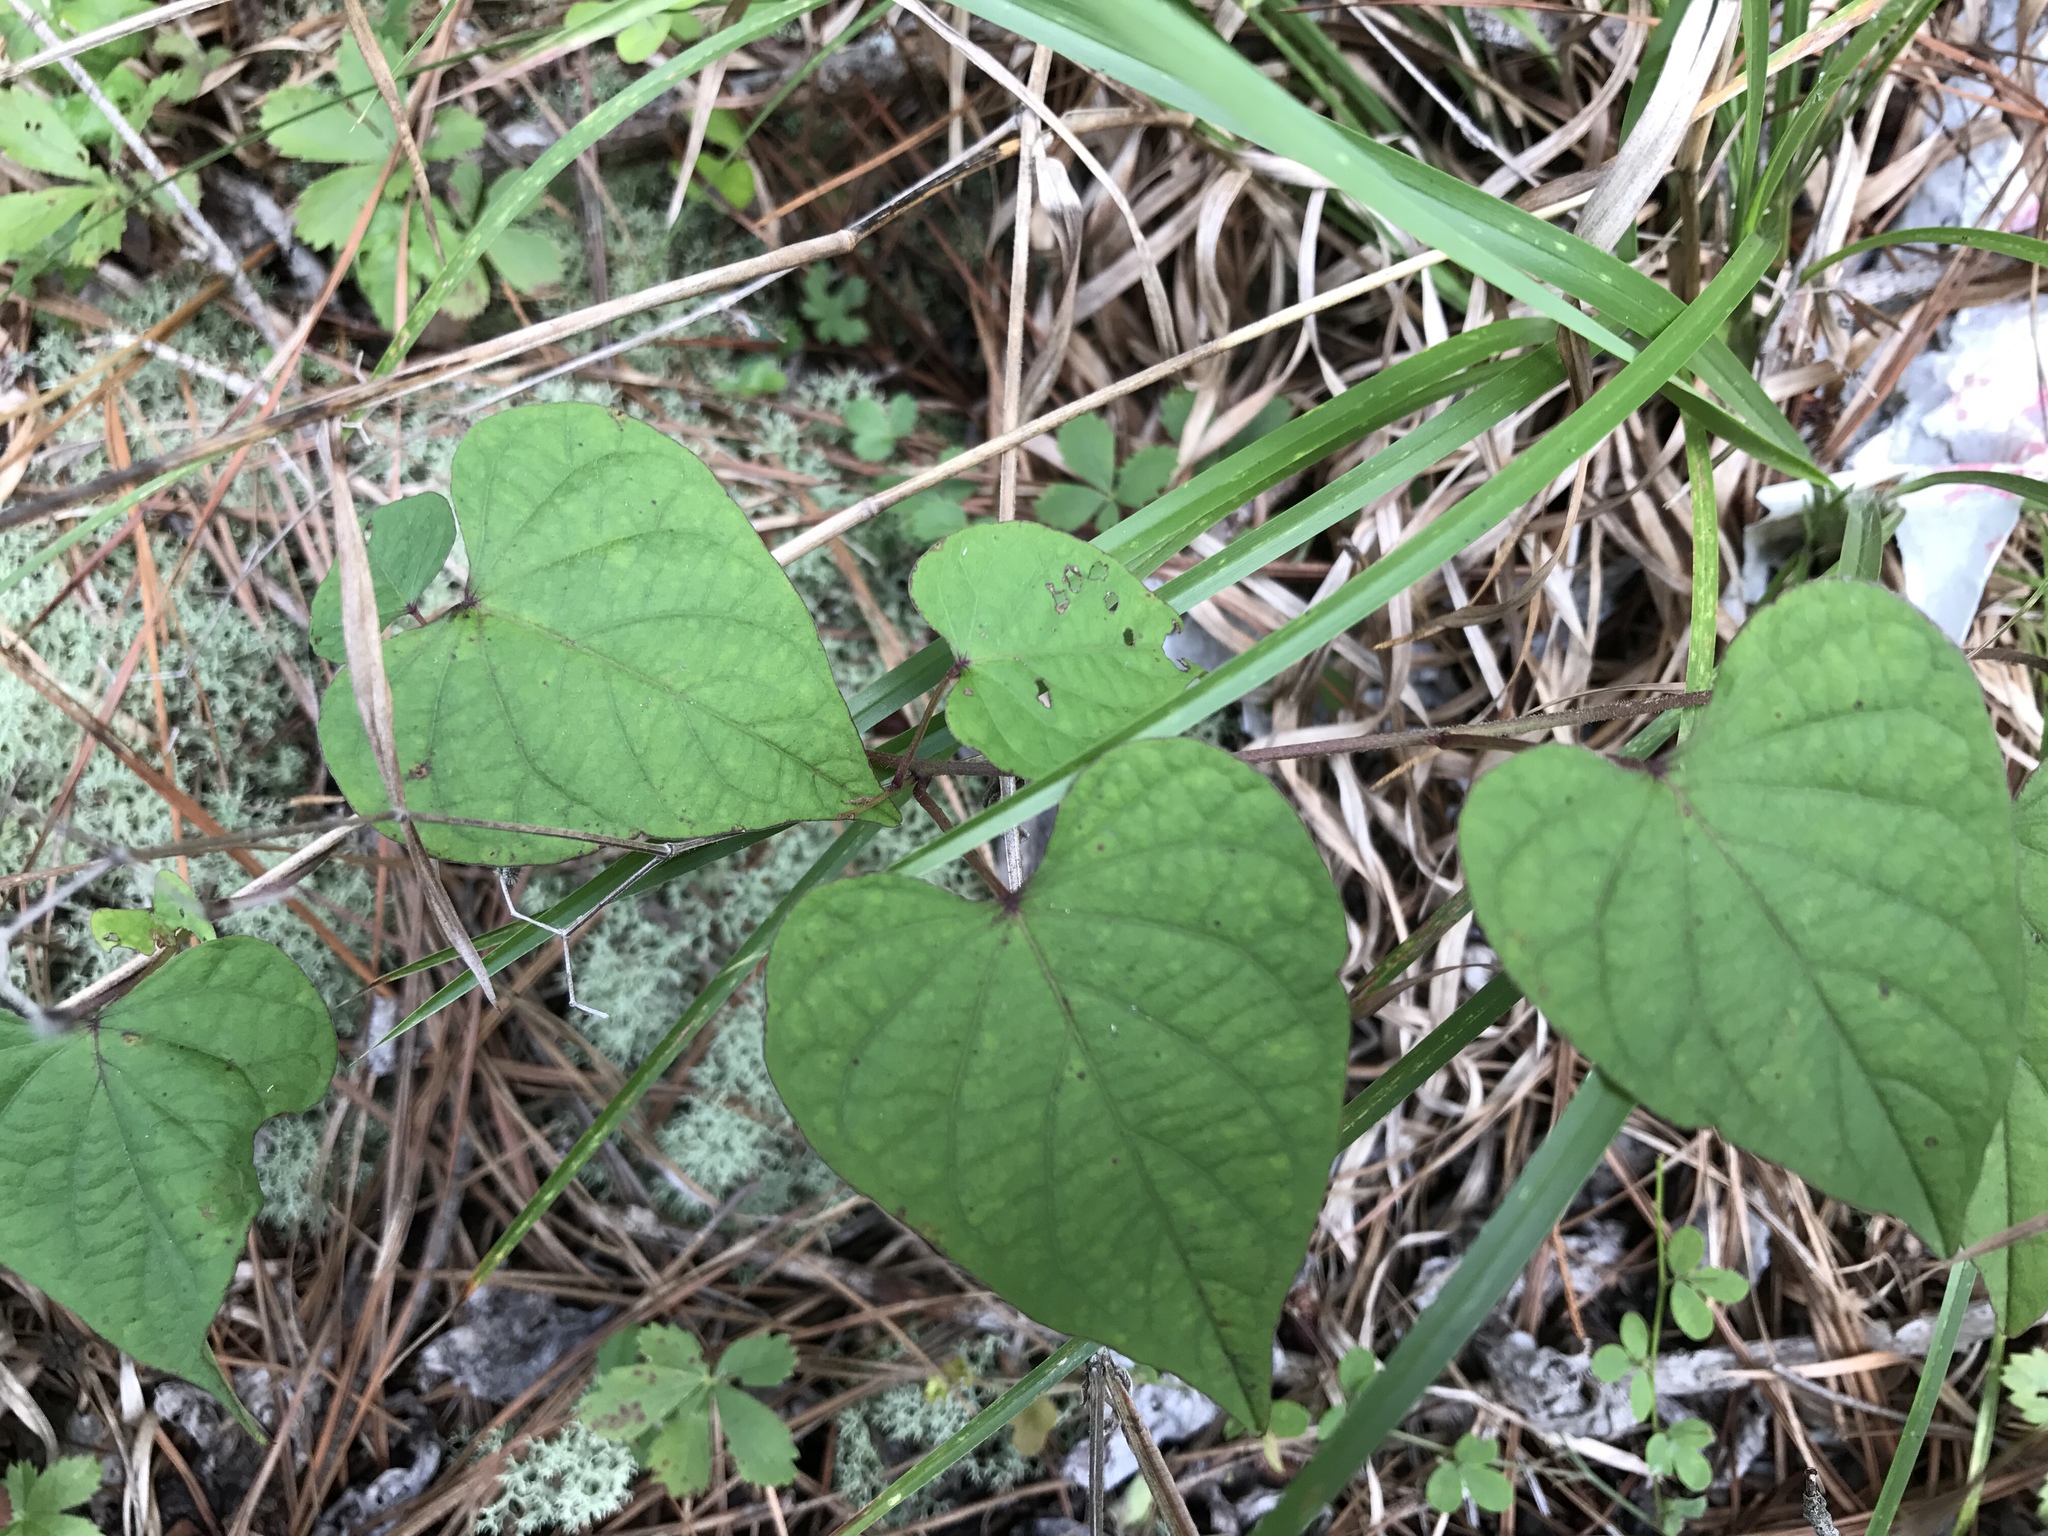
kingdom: Plantae
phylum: Tracheophyta
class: Magnoliopsida
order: Solanales
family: Convolvulaceae
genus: Ipomoea
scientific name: Ipomoea pandurata
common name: Man-of-the-earth
